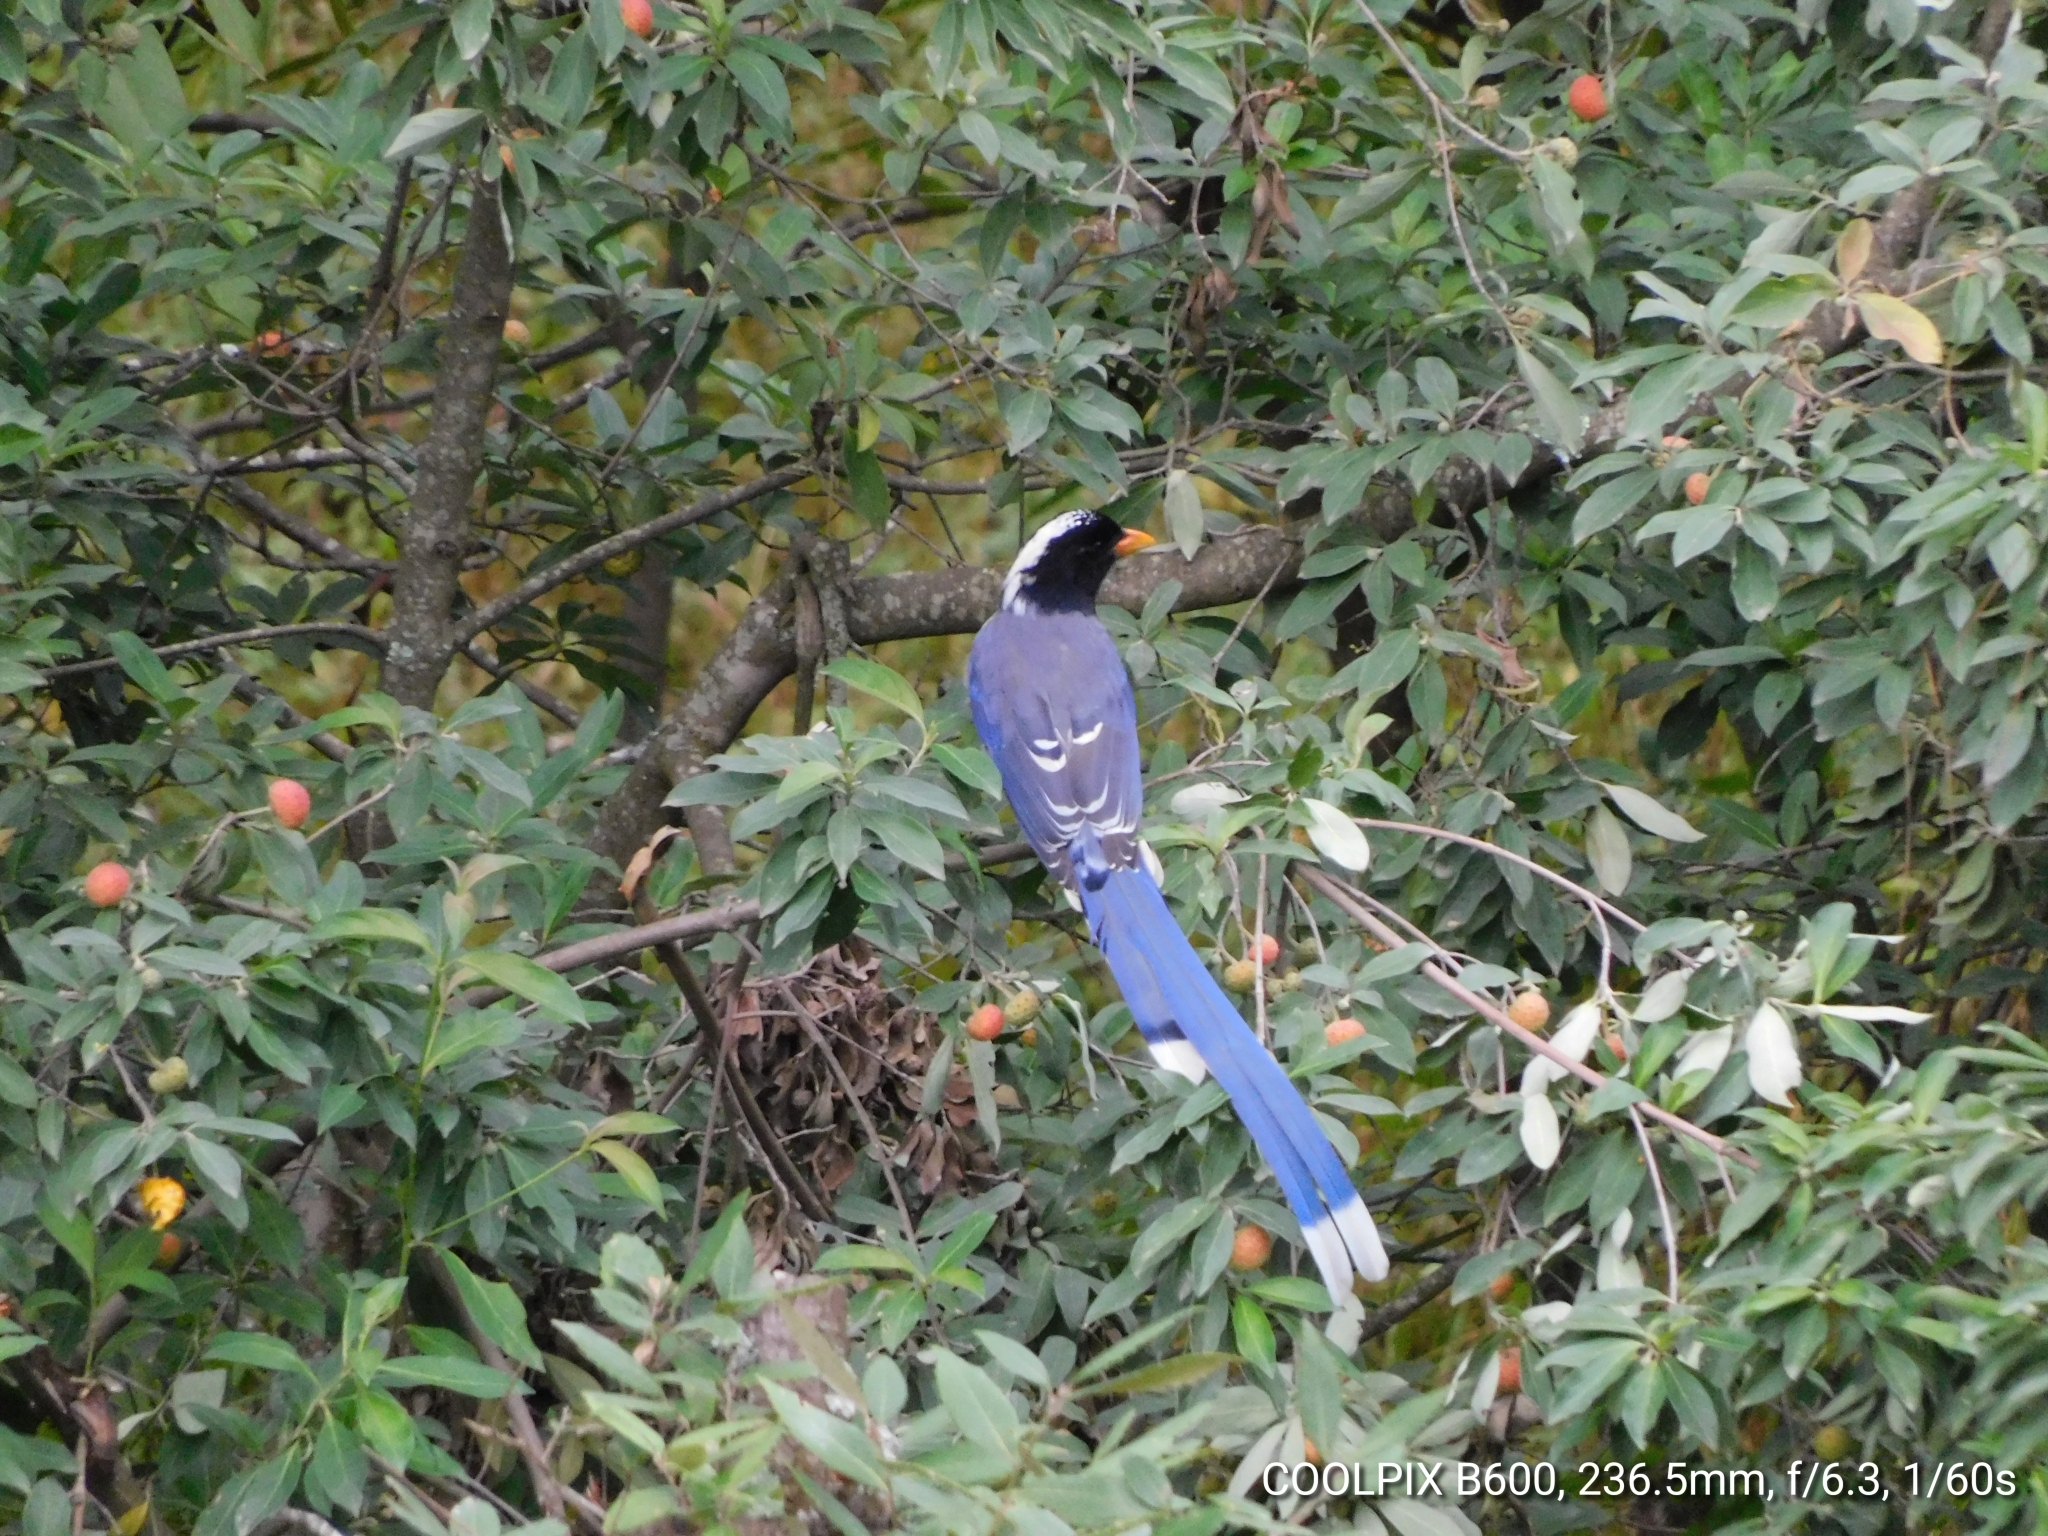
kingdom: Animalia
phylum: Chordata
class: Aves
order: Passeriformes
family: Corvidae
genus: Urocissa
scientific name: Urocissa erythroryncha
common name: Red-billed blue magpie
